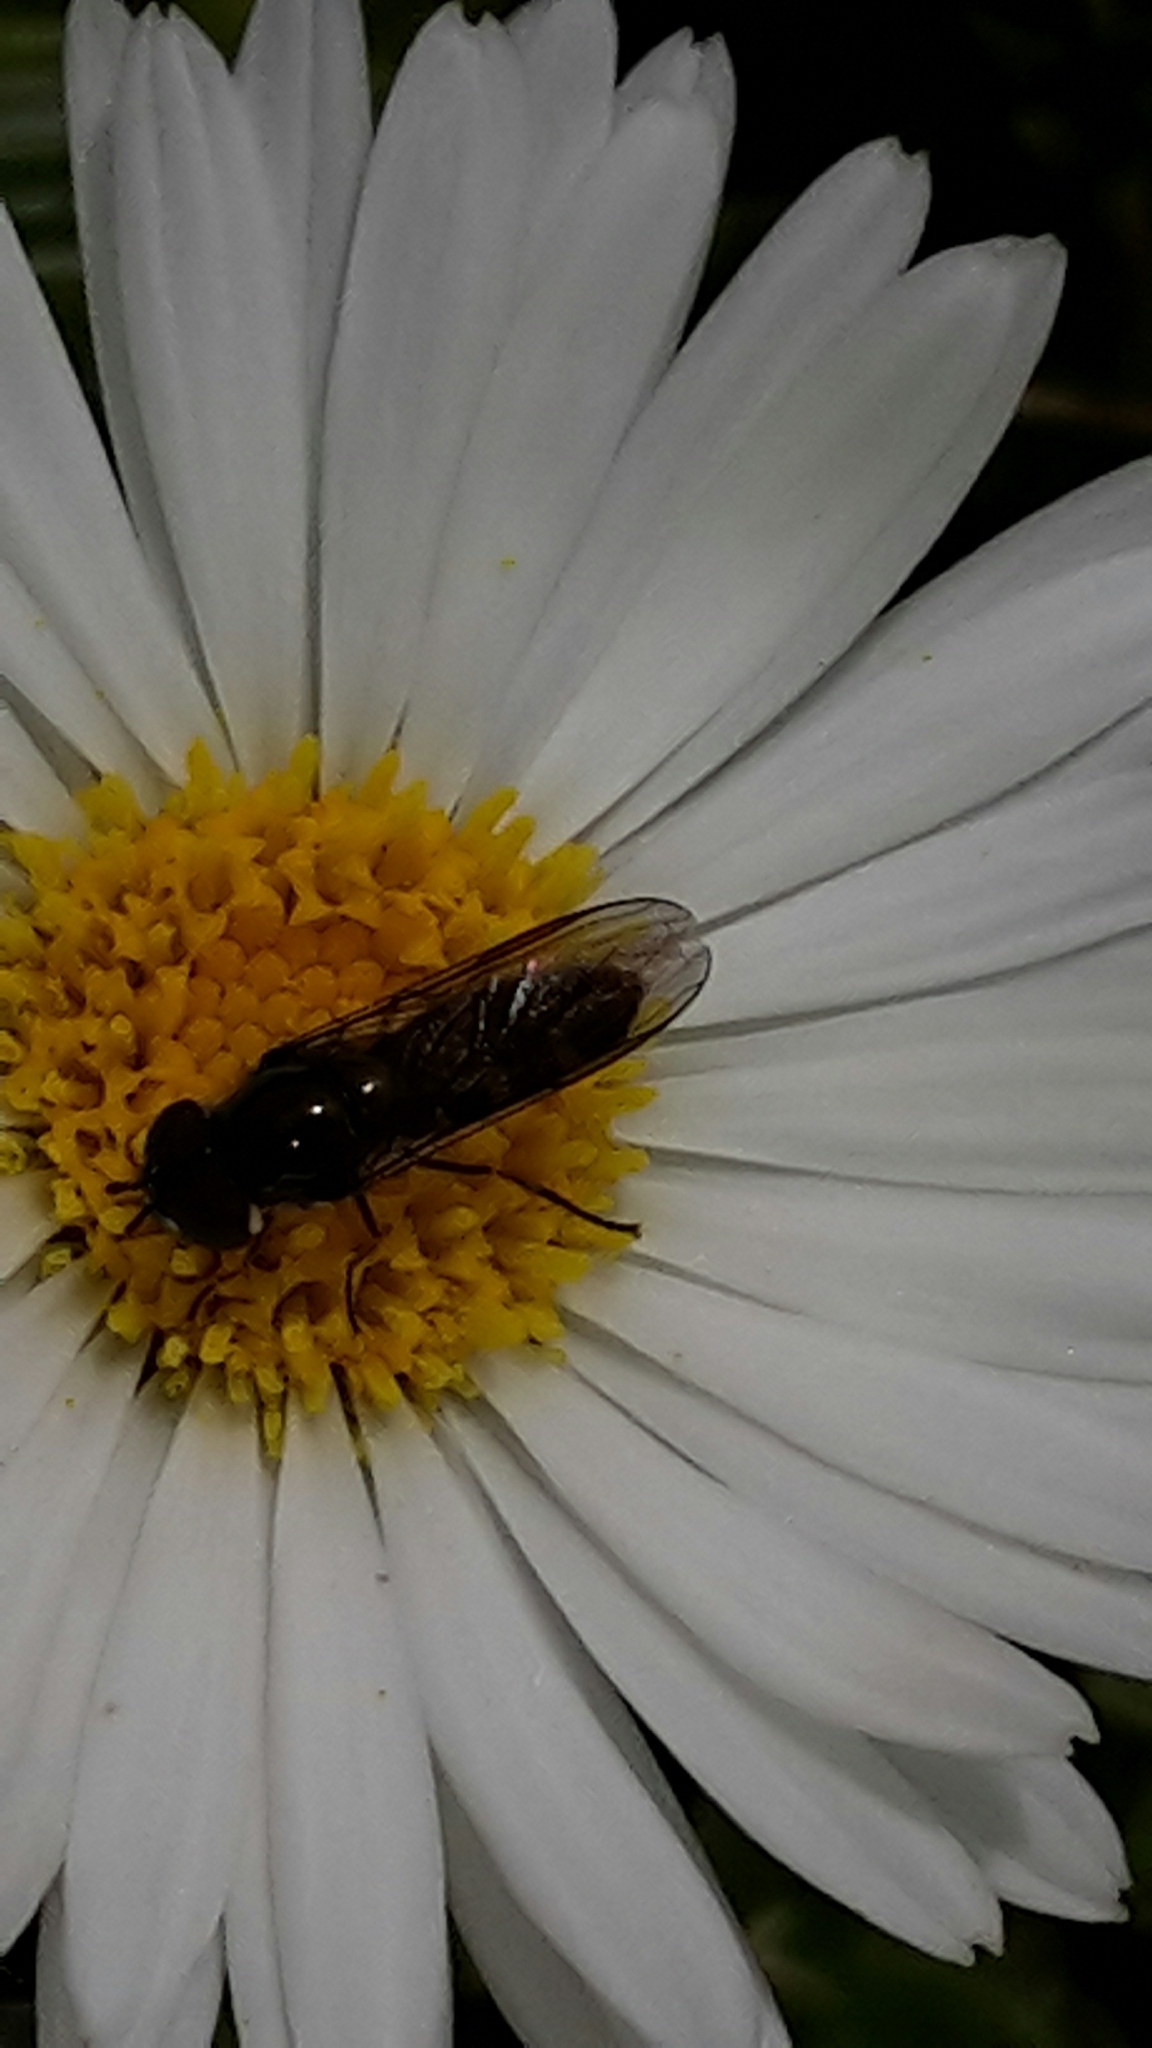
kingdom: Animalia
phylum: Arthropoda
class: Insecta
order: Diptera
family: Syrphidae
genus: Melangyna
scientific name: Melangyna novaezelandiae
